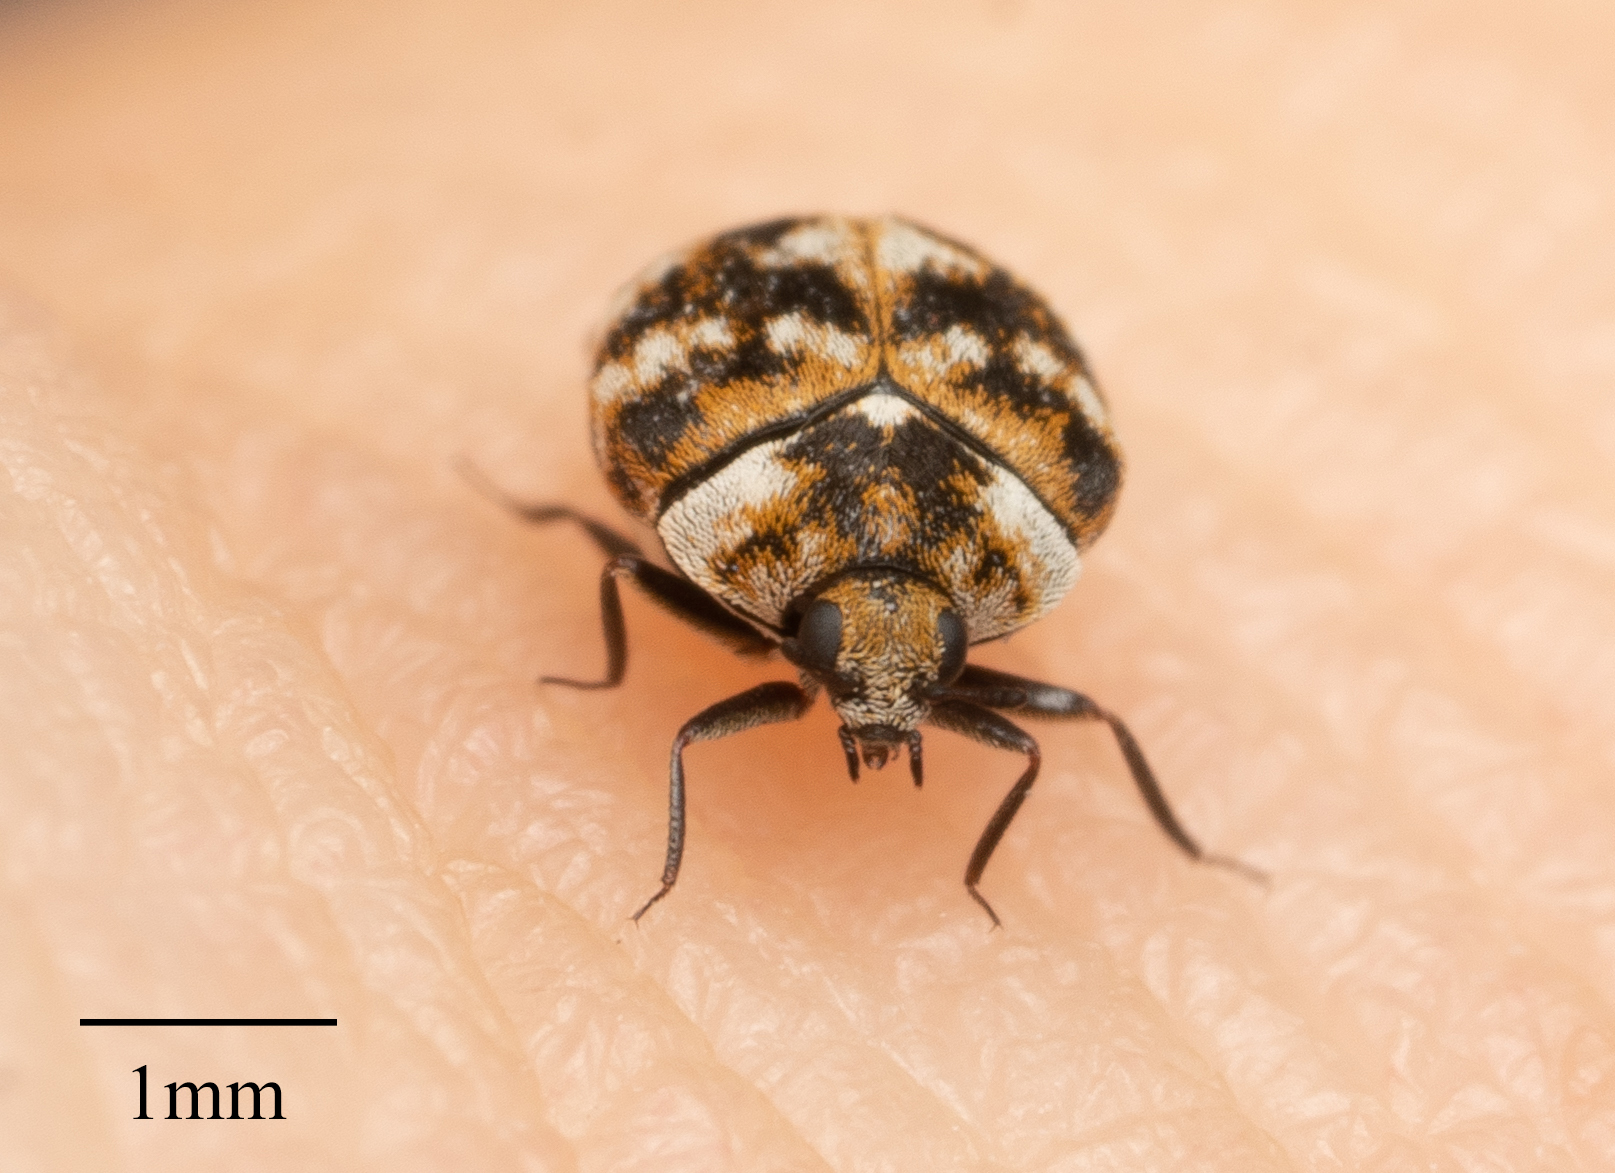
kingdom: Animalia
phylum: Arthropoda
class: Insecta
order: Coleoptera
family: Dermestidae
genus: Anthrenus
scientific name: Anthrenus verbasci
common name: Varied carpet beetle
